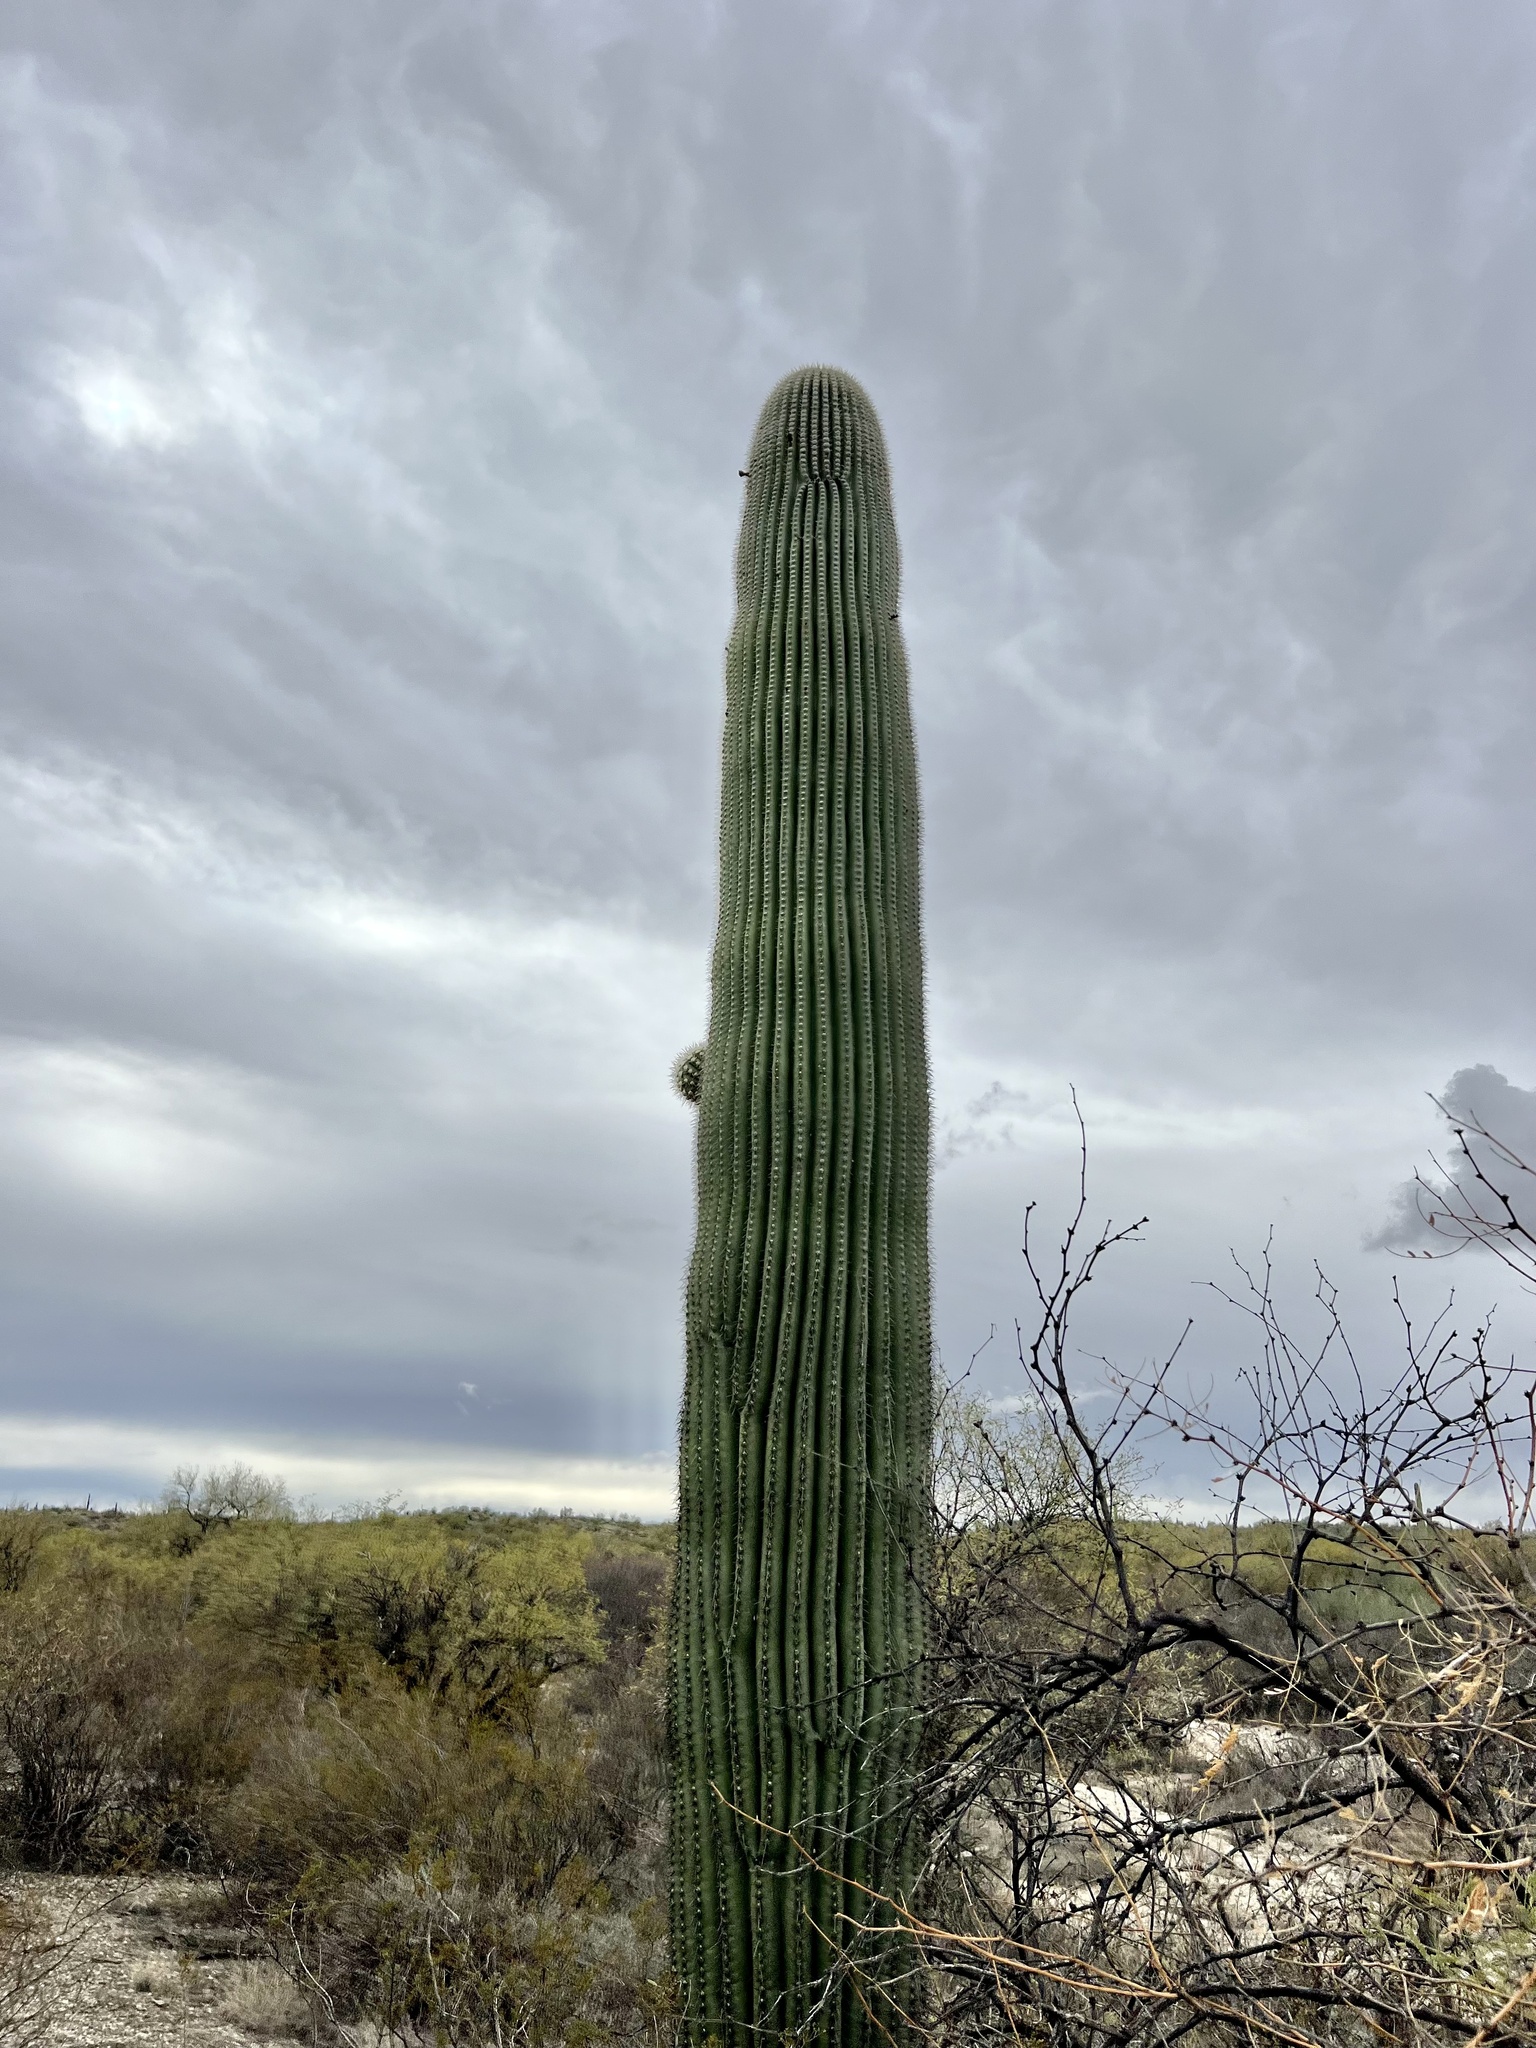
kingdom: Plantae
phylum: Tracheophyta
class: Magnoliopsida
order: Caryophyllales
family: Cactaceae
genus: Carnegiea
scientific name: Carnegiea gigantea
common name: Saguaro
